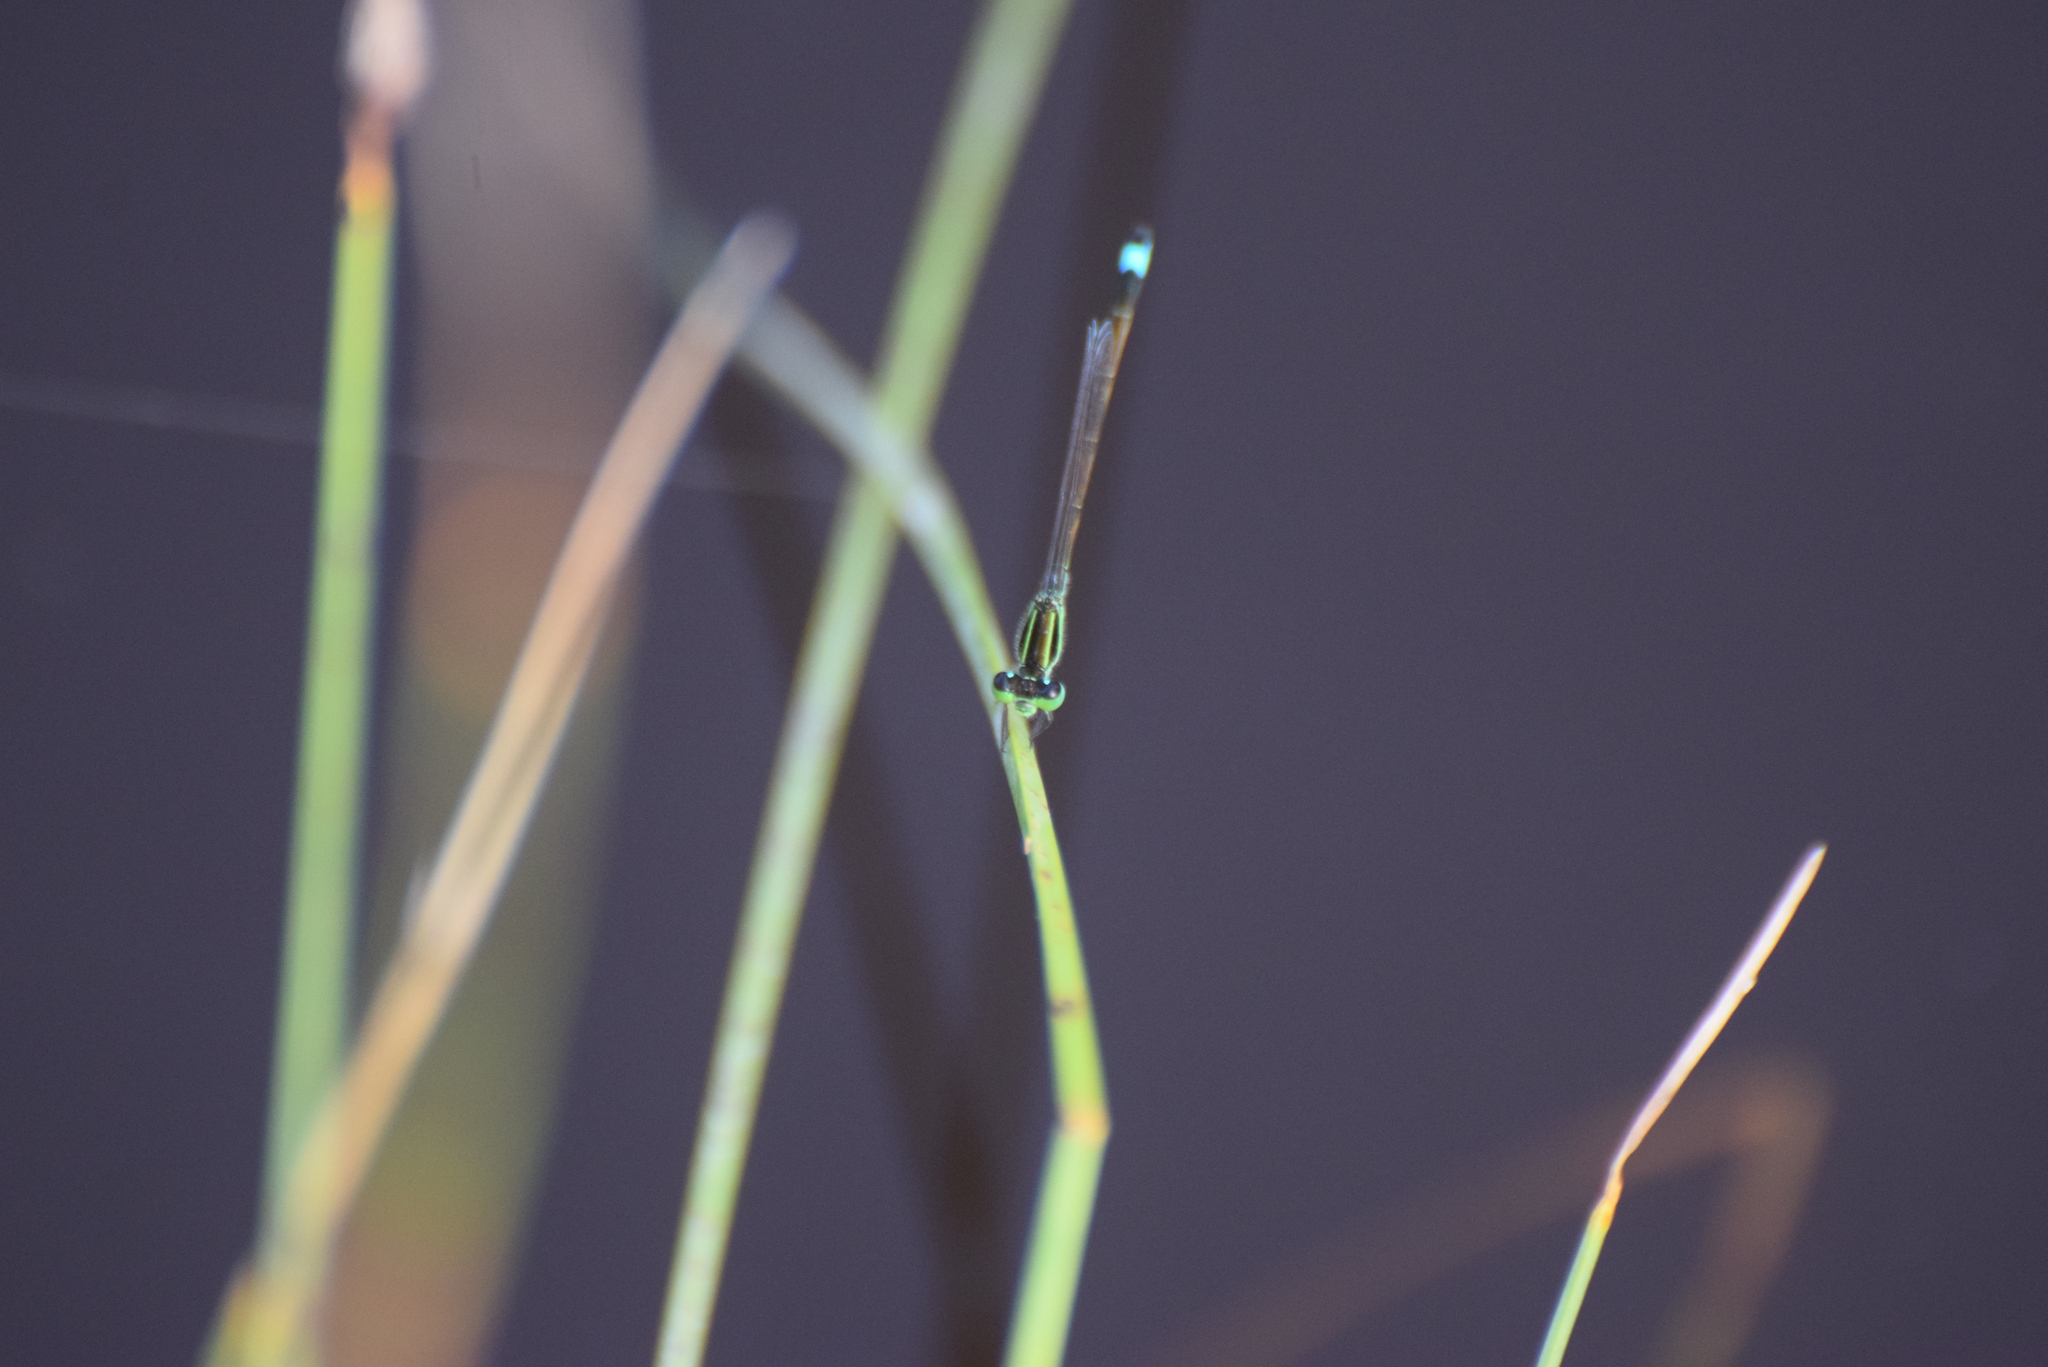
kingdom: Animalia
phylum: Arthropoda
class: Insecta
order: Odonata
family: Coenagrionidae
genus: Ischnura
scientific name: Ischnura ramburii
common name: Rambur's forktail
